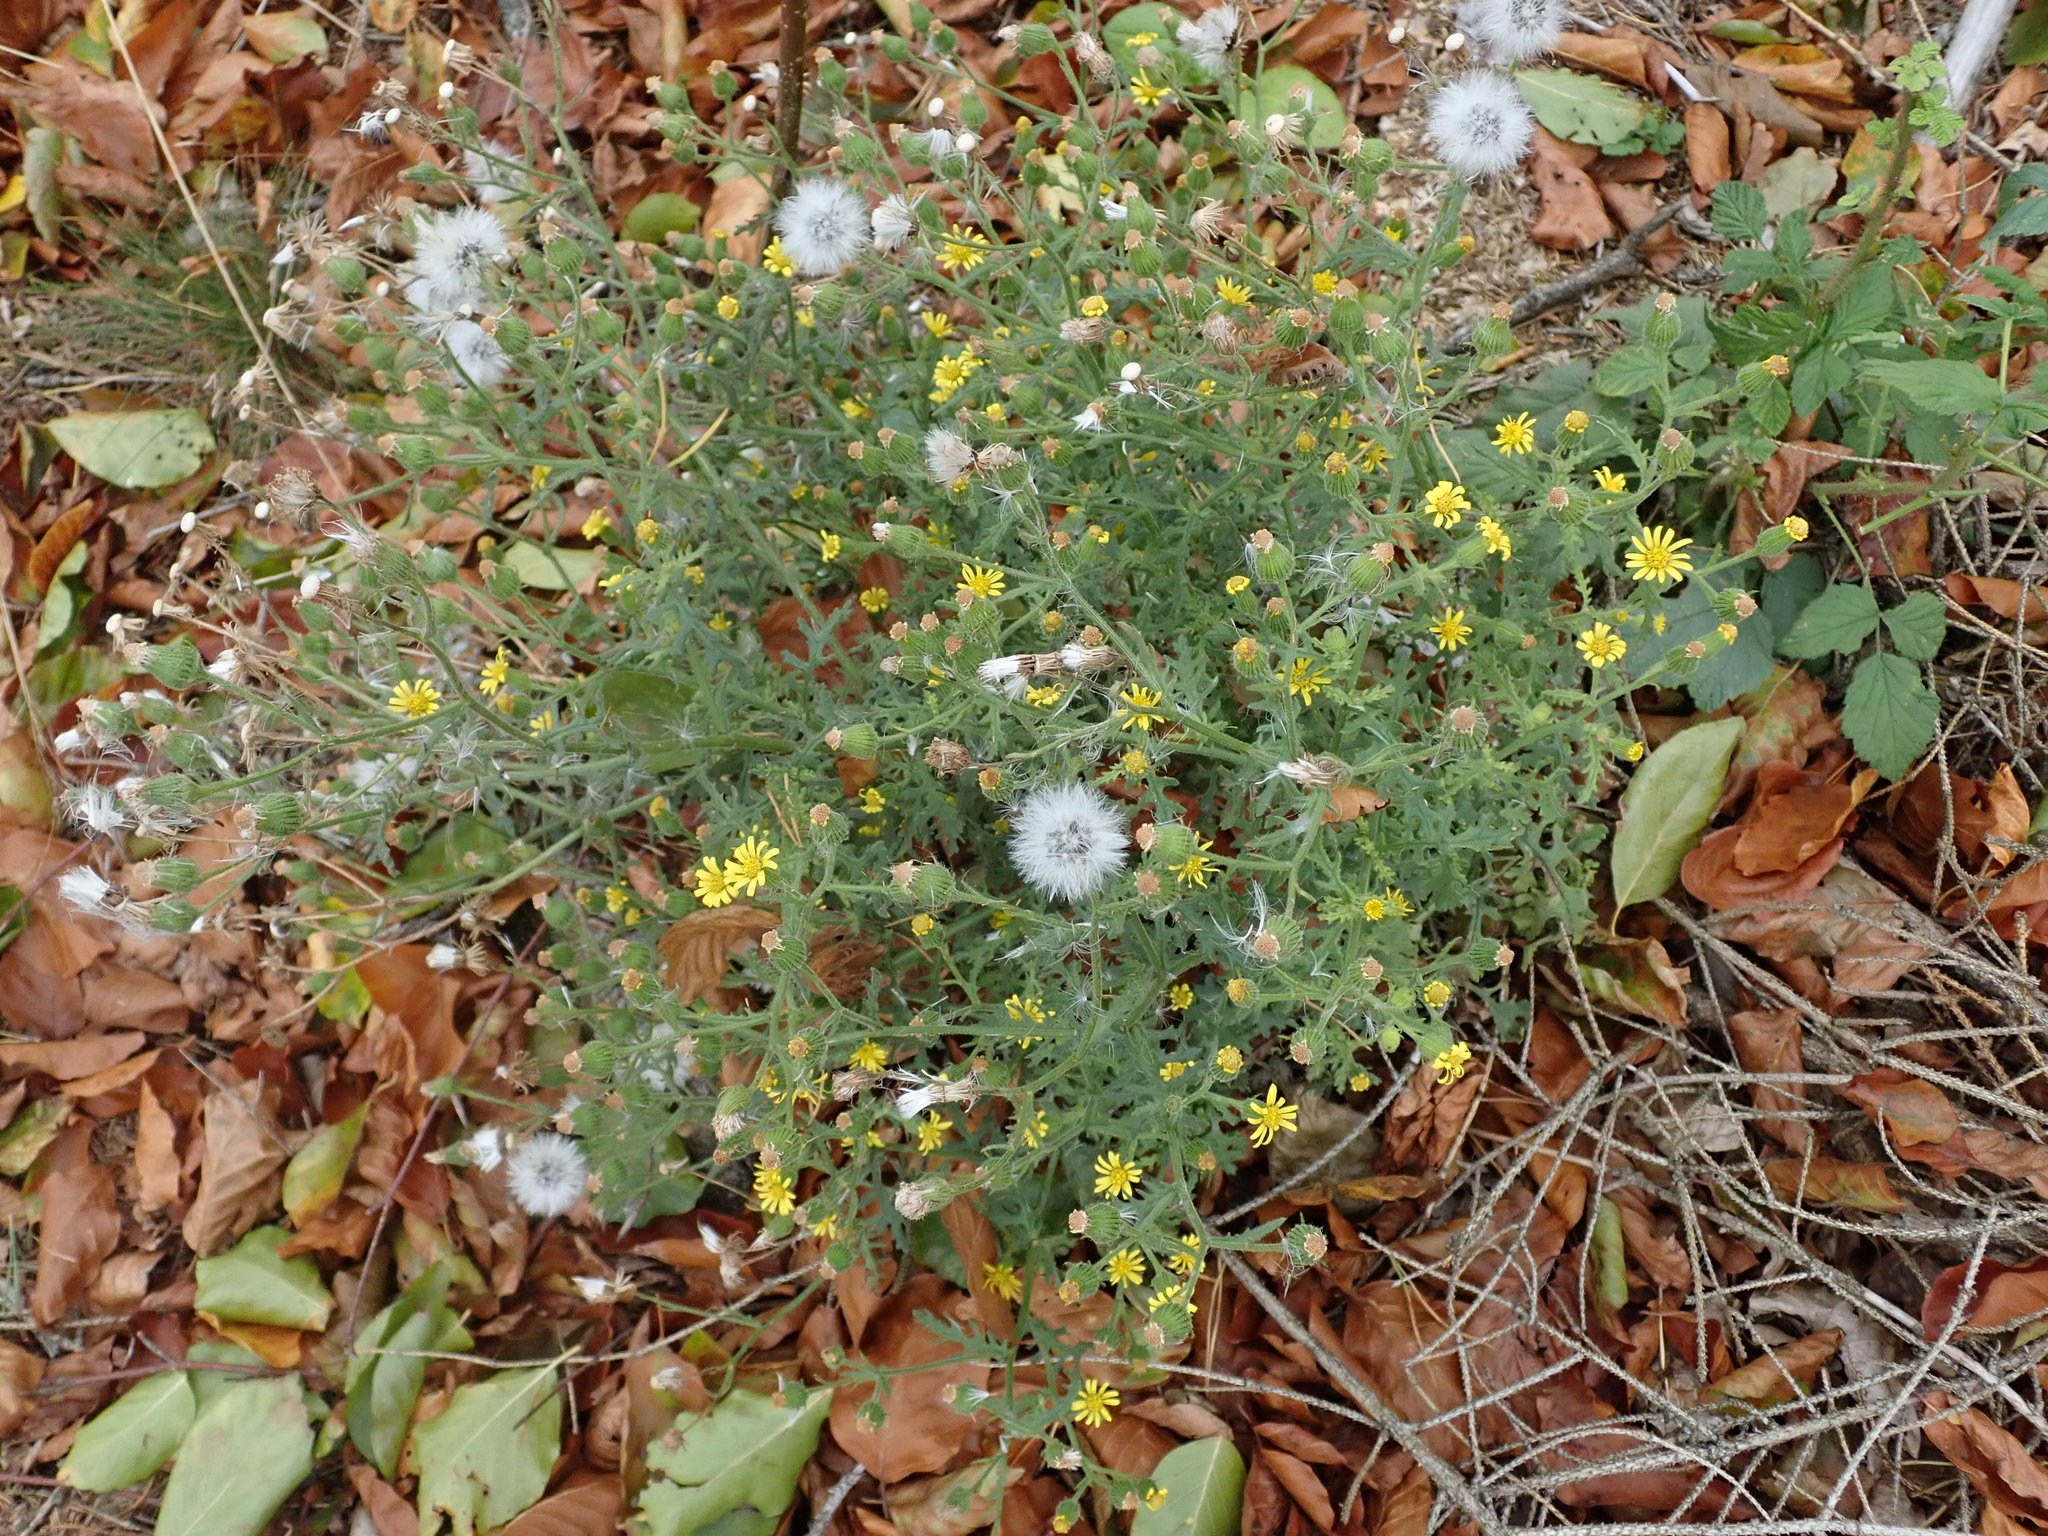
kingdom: Plantae
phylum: Tracheophyta
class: Magnoliopsida
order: Asterales
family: Asteraceae
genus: Senecio
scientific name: Senecio viscosus
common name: Sticky groundsel
